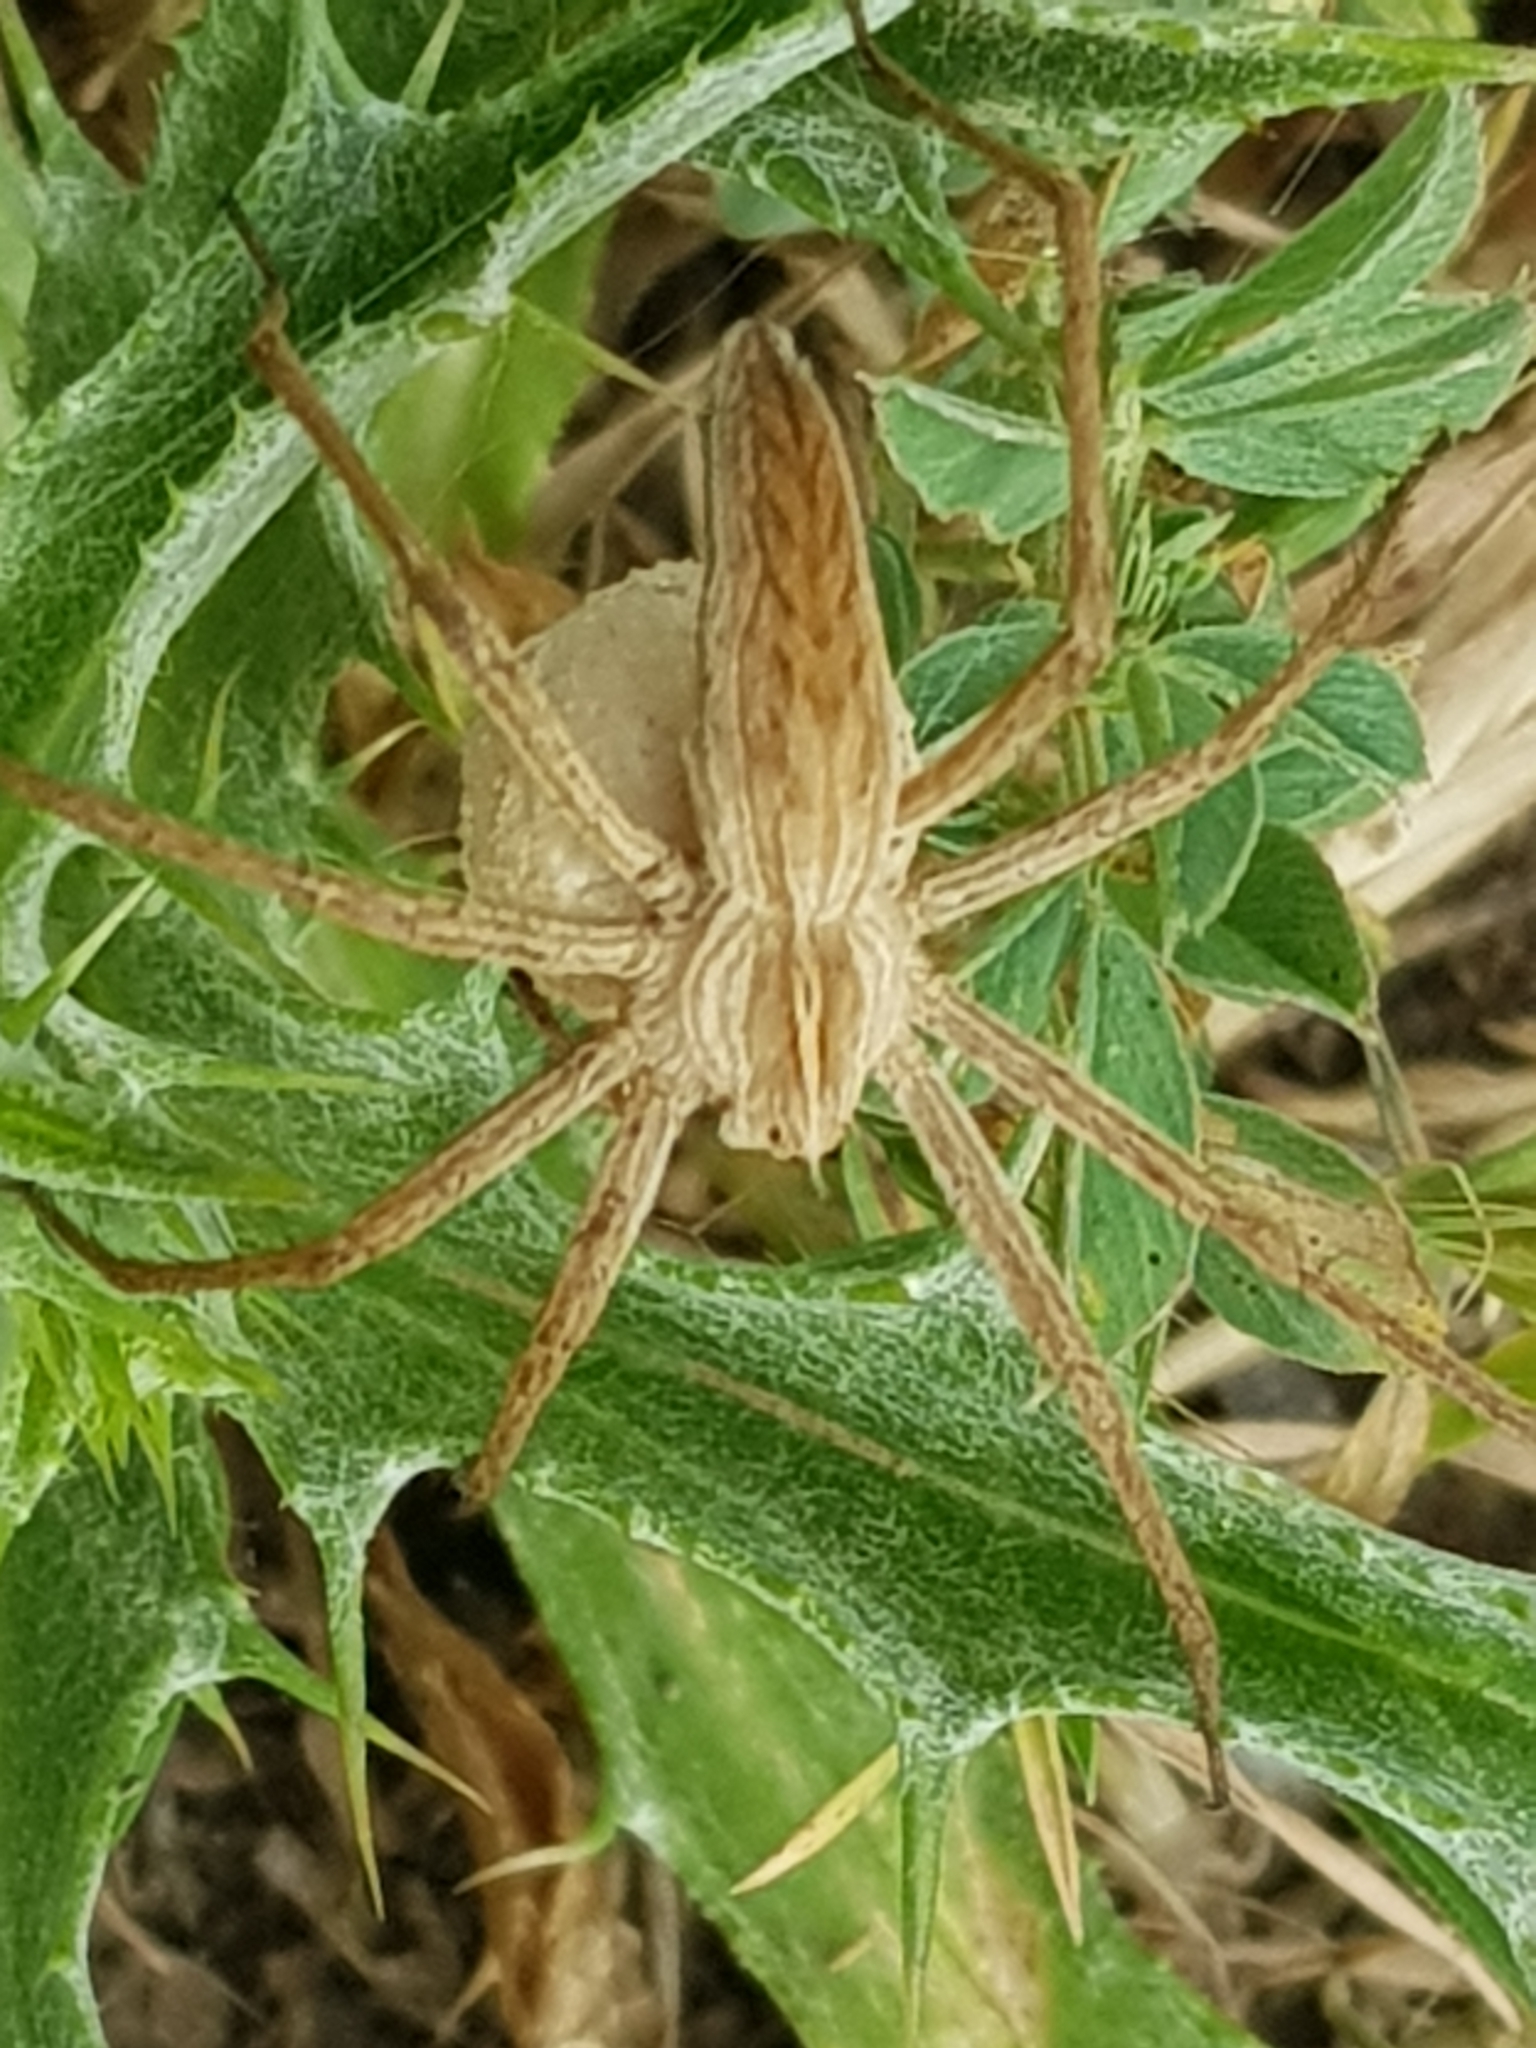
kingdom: Animalia
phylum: Arthropoda
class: Arachnida
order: Araneae
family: Pisauridae
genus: Pisaura
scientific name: Pisaura mirabilis
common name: Tent spider
